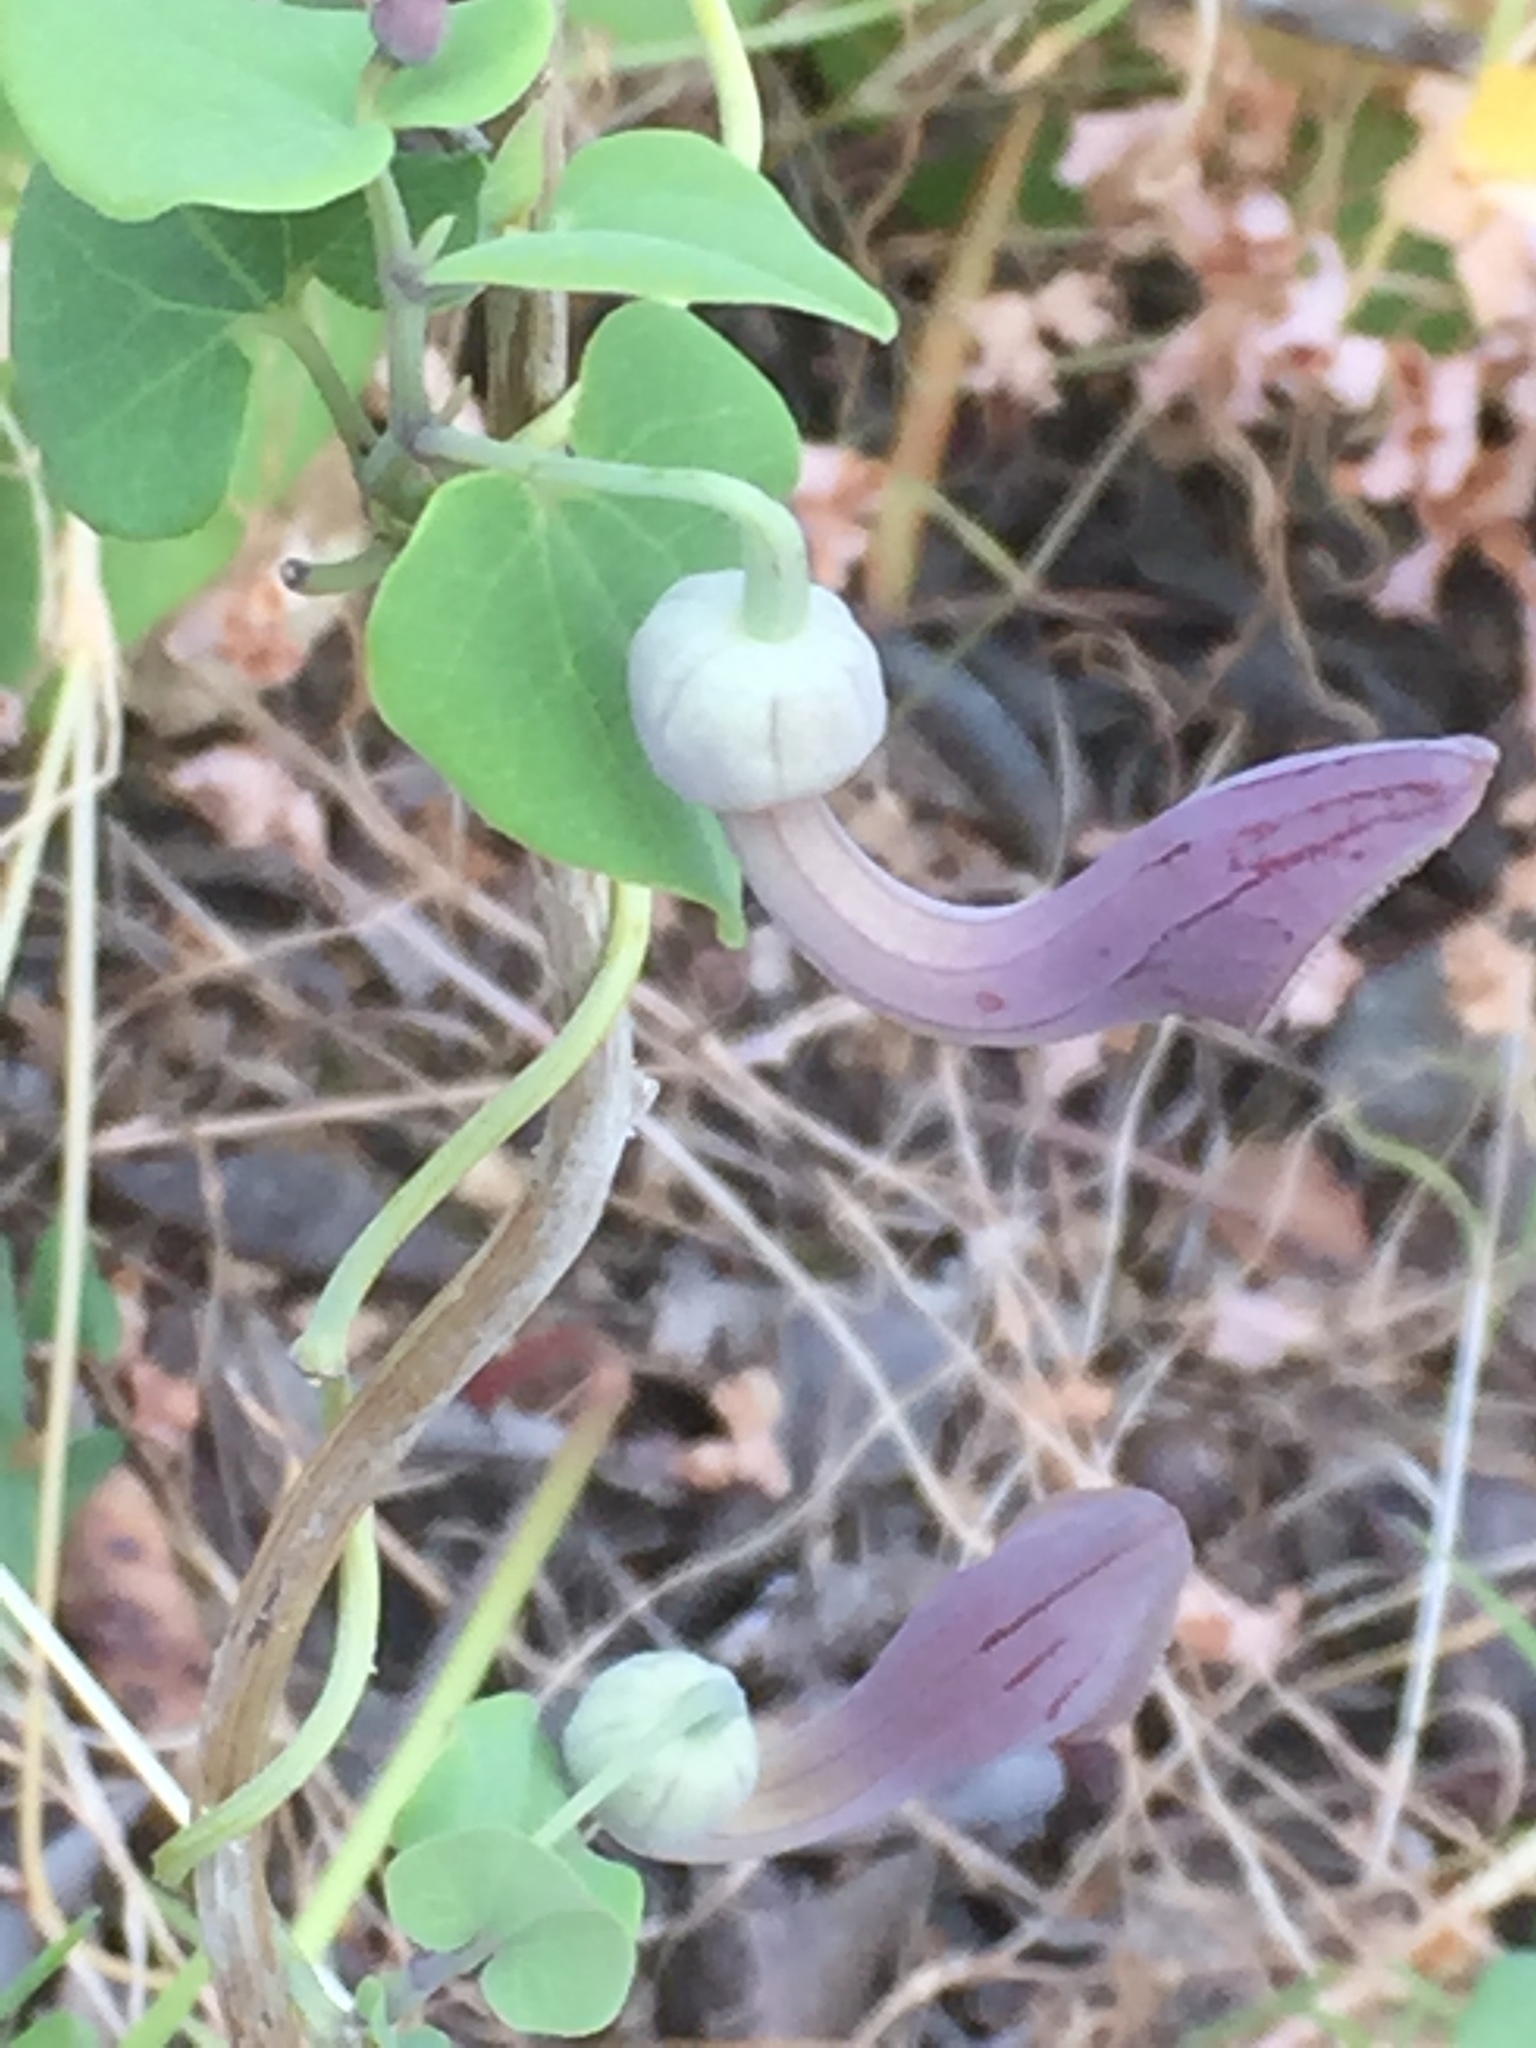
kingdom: Plantae
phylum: Tracheophyta
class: Magnoliopsida
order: Piperales
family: Aristolochiaceae
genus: Aristolochia
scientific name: Aristolochia baetica
